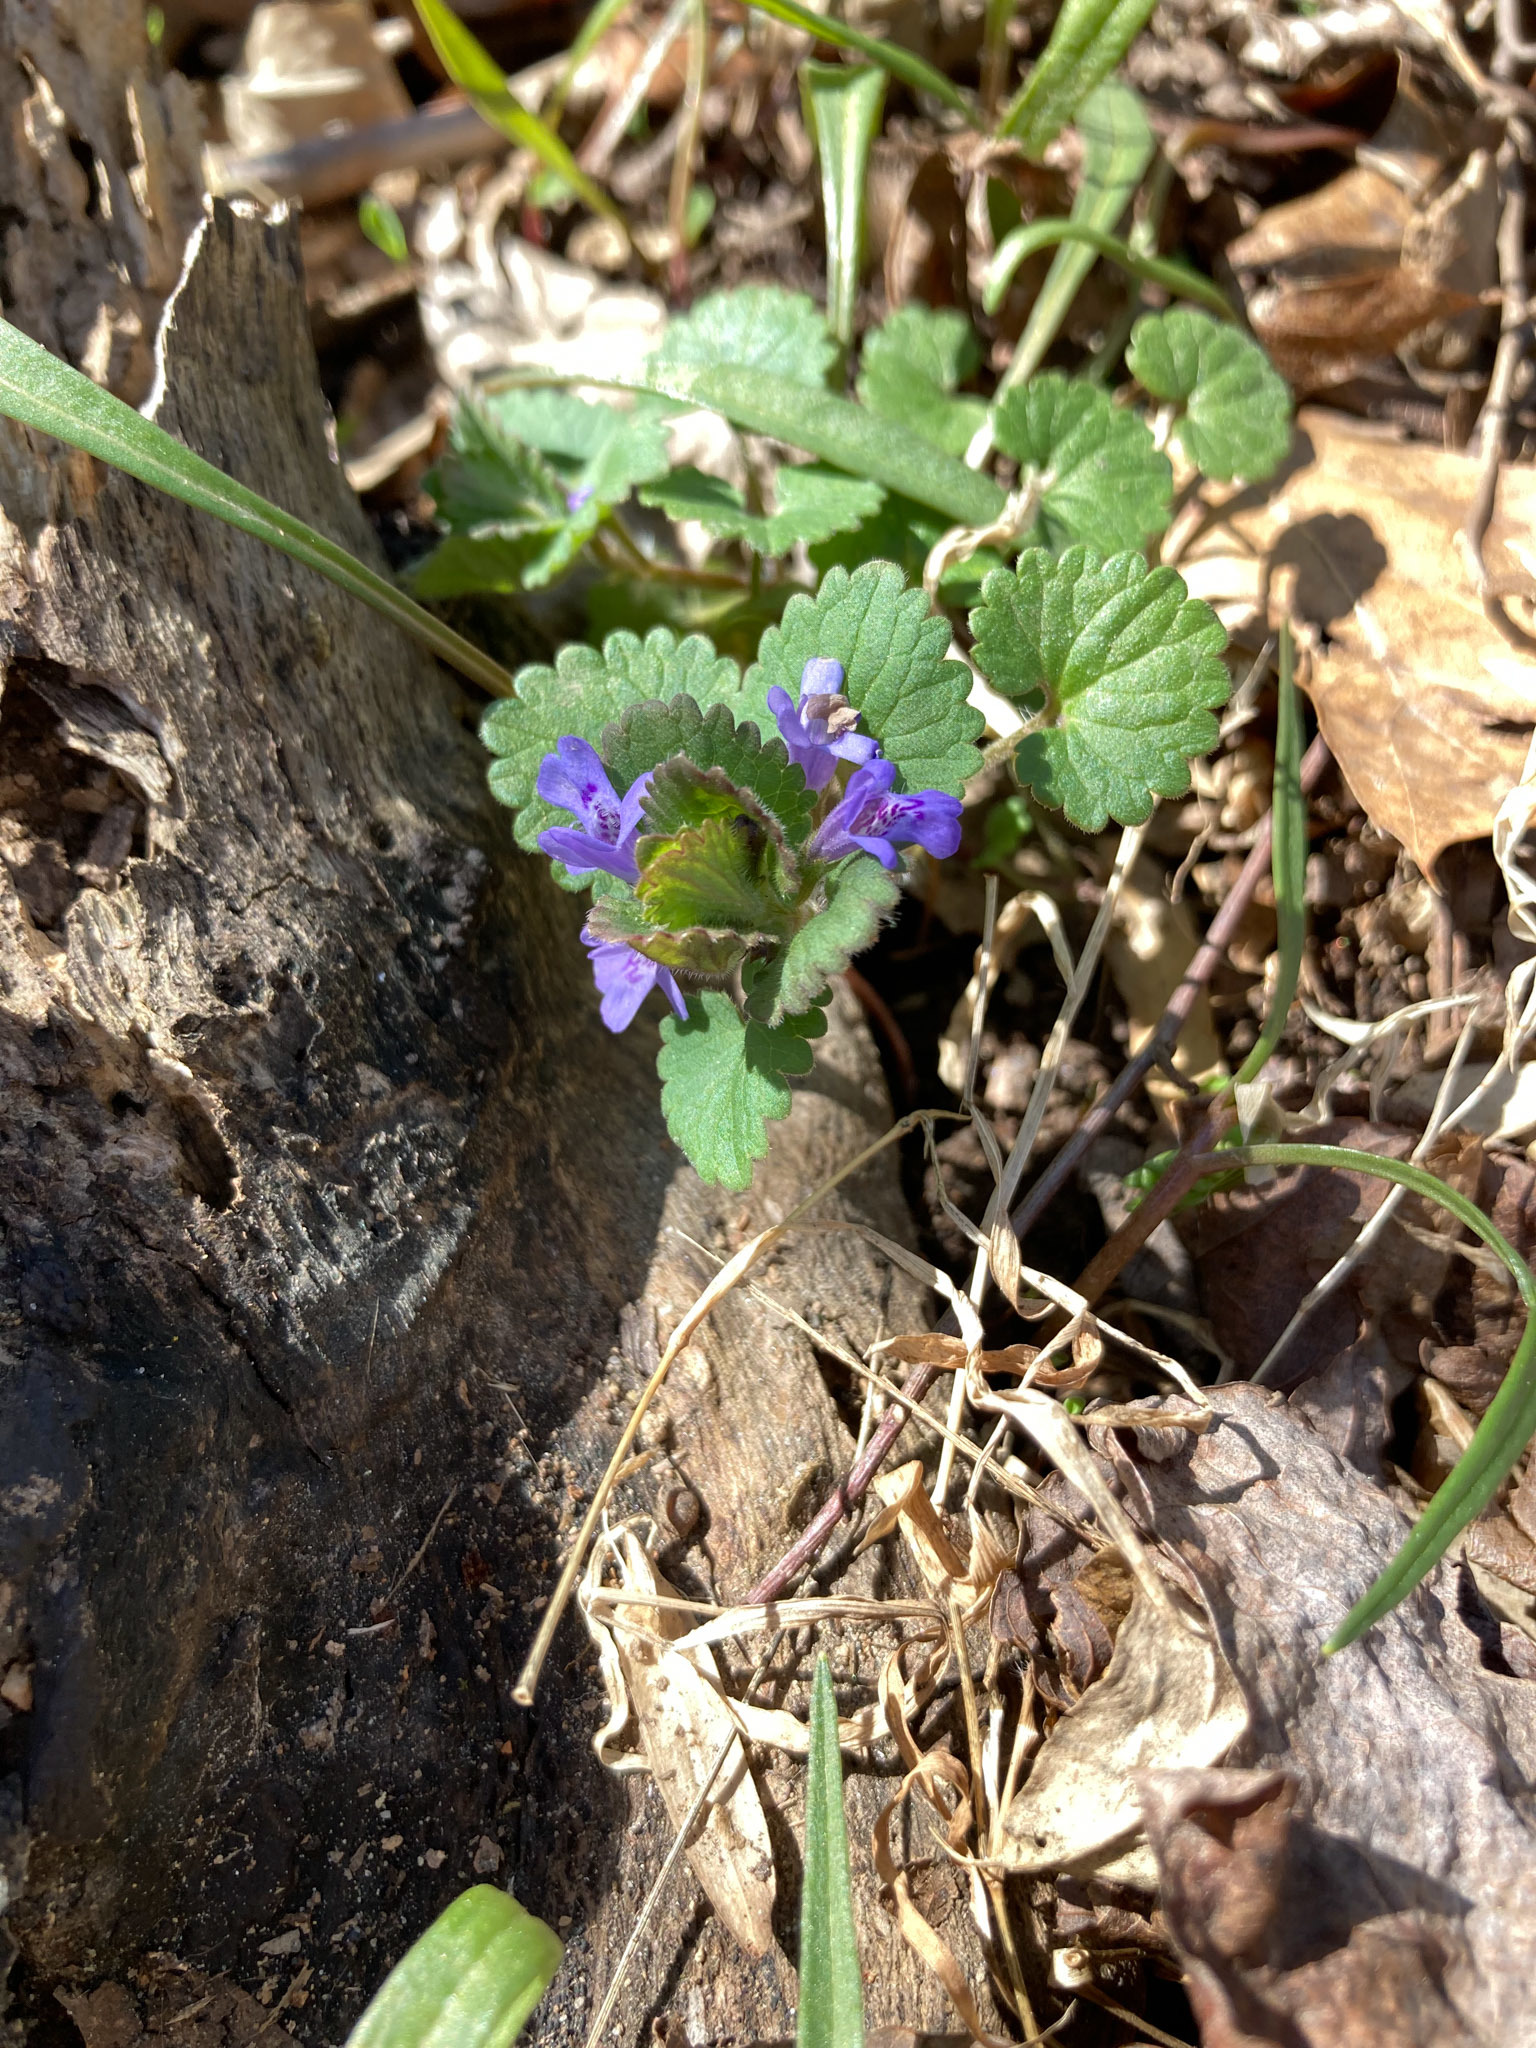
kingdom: Plantae
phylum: Tracheophyta
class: Magnoliopsida
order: Lamiales
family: Lamiaceae
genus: Glechoma
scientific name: Glechoma hederacea
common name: Ground ivy
